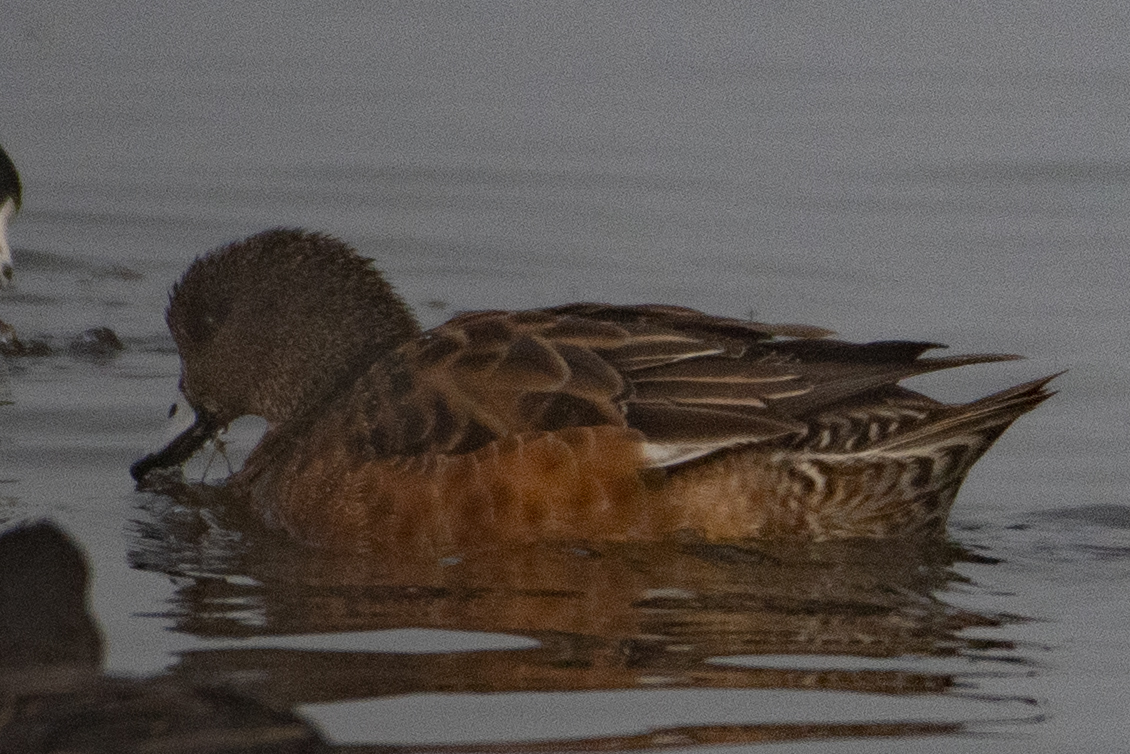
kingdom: Animalia
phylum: Chordata
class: Aves
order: Anseriformes
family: Anatidae
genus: Mareca
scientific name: Mareca americana
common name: American wigeon
